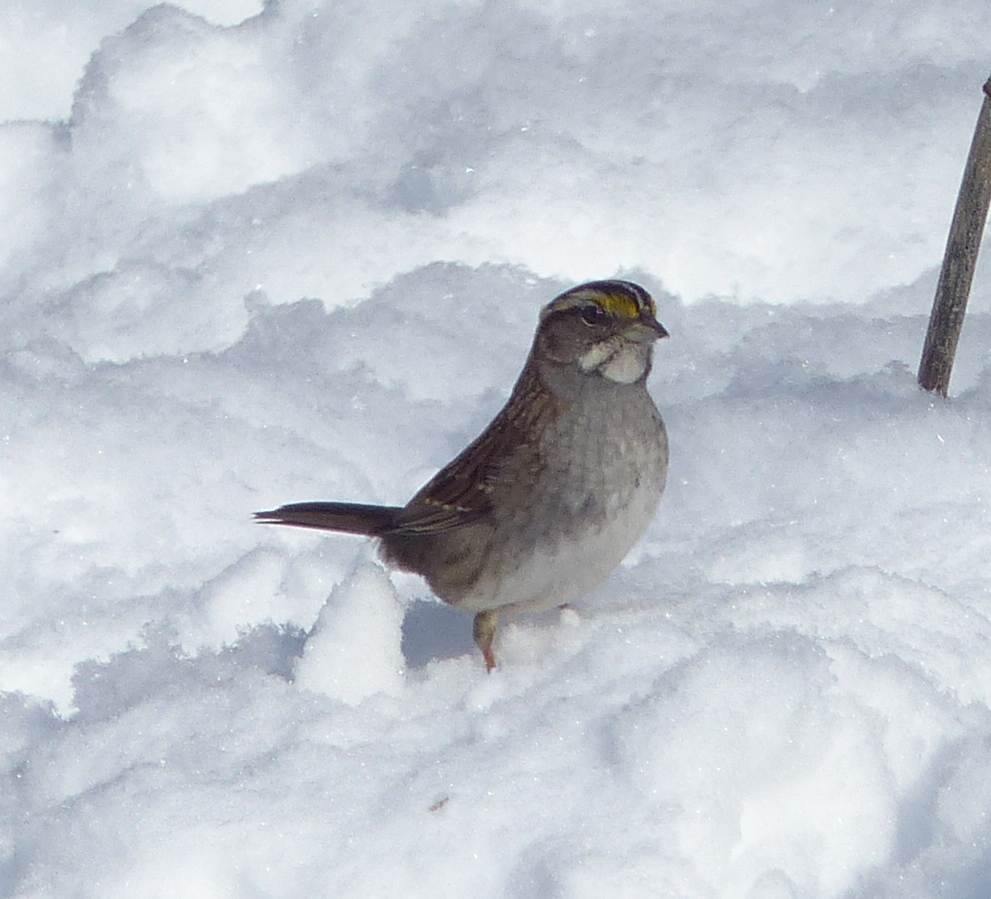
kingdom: Animalia
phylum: Chordata
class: Aves
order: Passeriformes
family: Passerellidae
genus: Zonotrichia
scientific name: Zonotrichia albicollis
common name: White-throated sparrow
